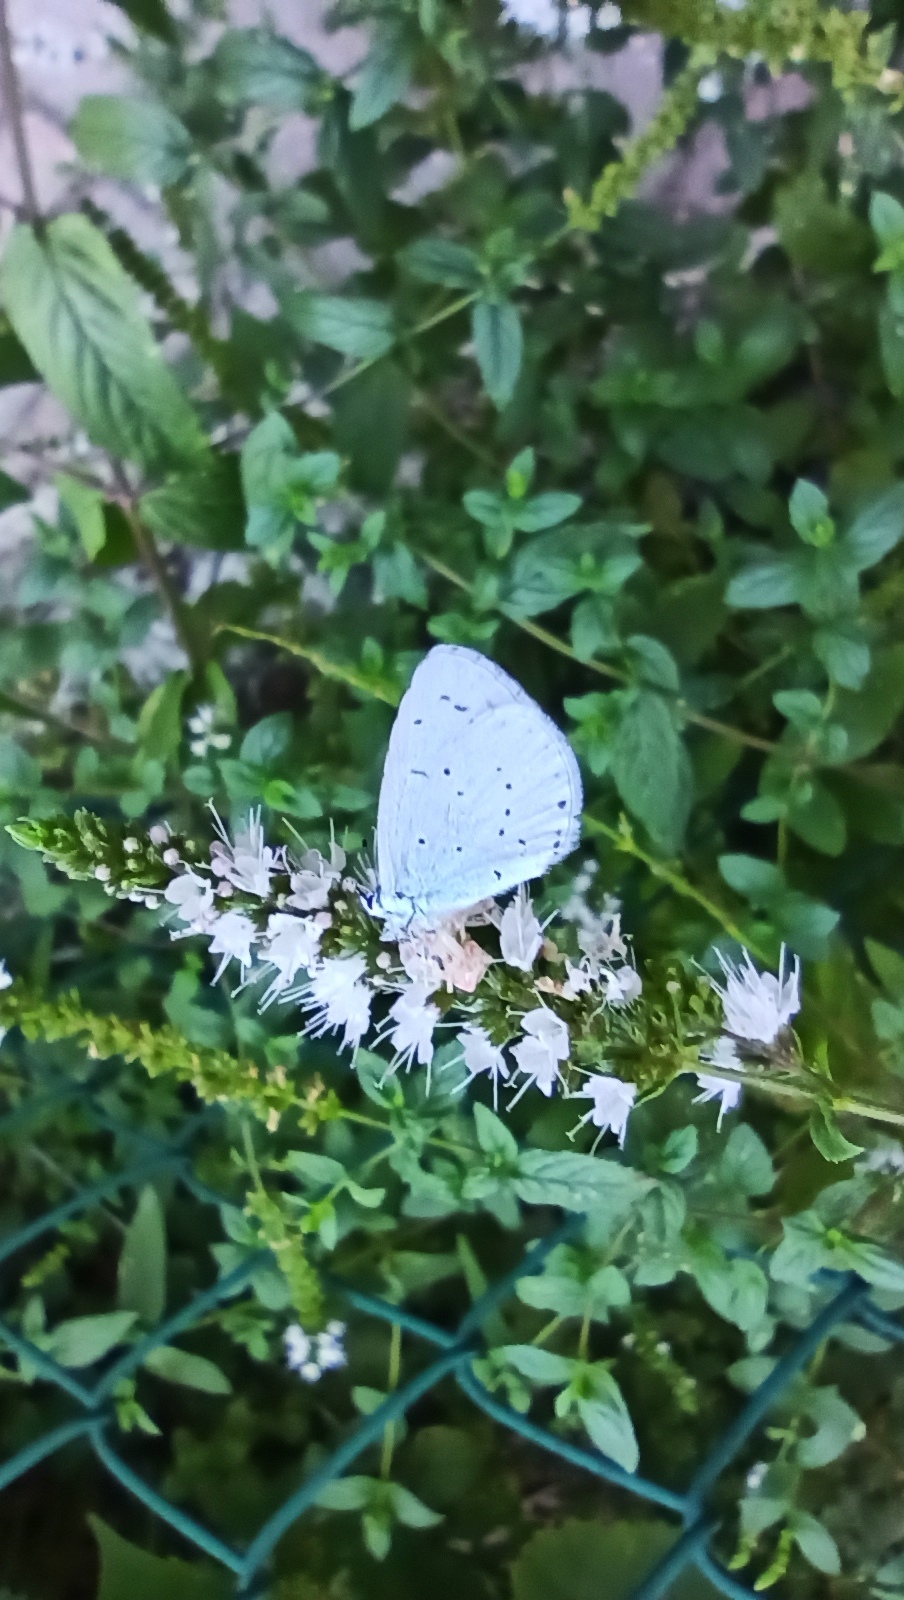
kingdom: Animalia
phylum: Arthropoda
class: Insecta
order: Lepidoptera
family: Lycaenidae
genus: Celastrina
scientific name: Celastrina argiolus
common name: Holly blue
